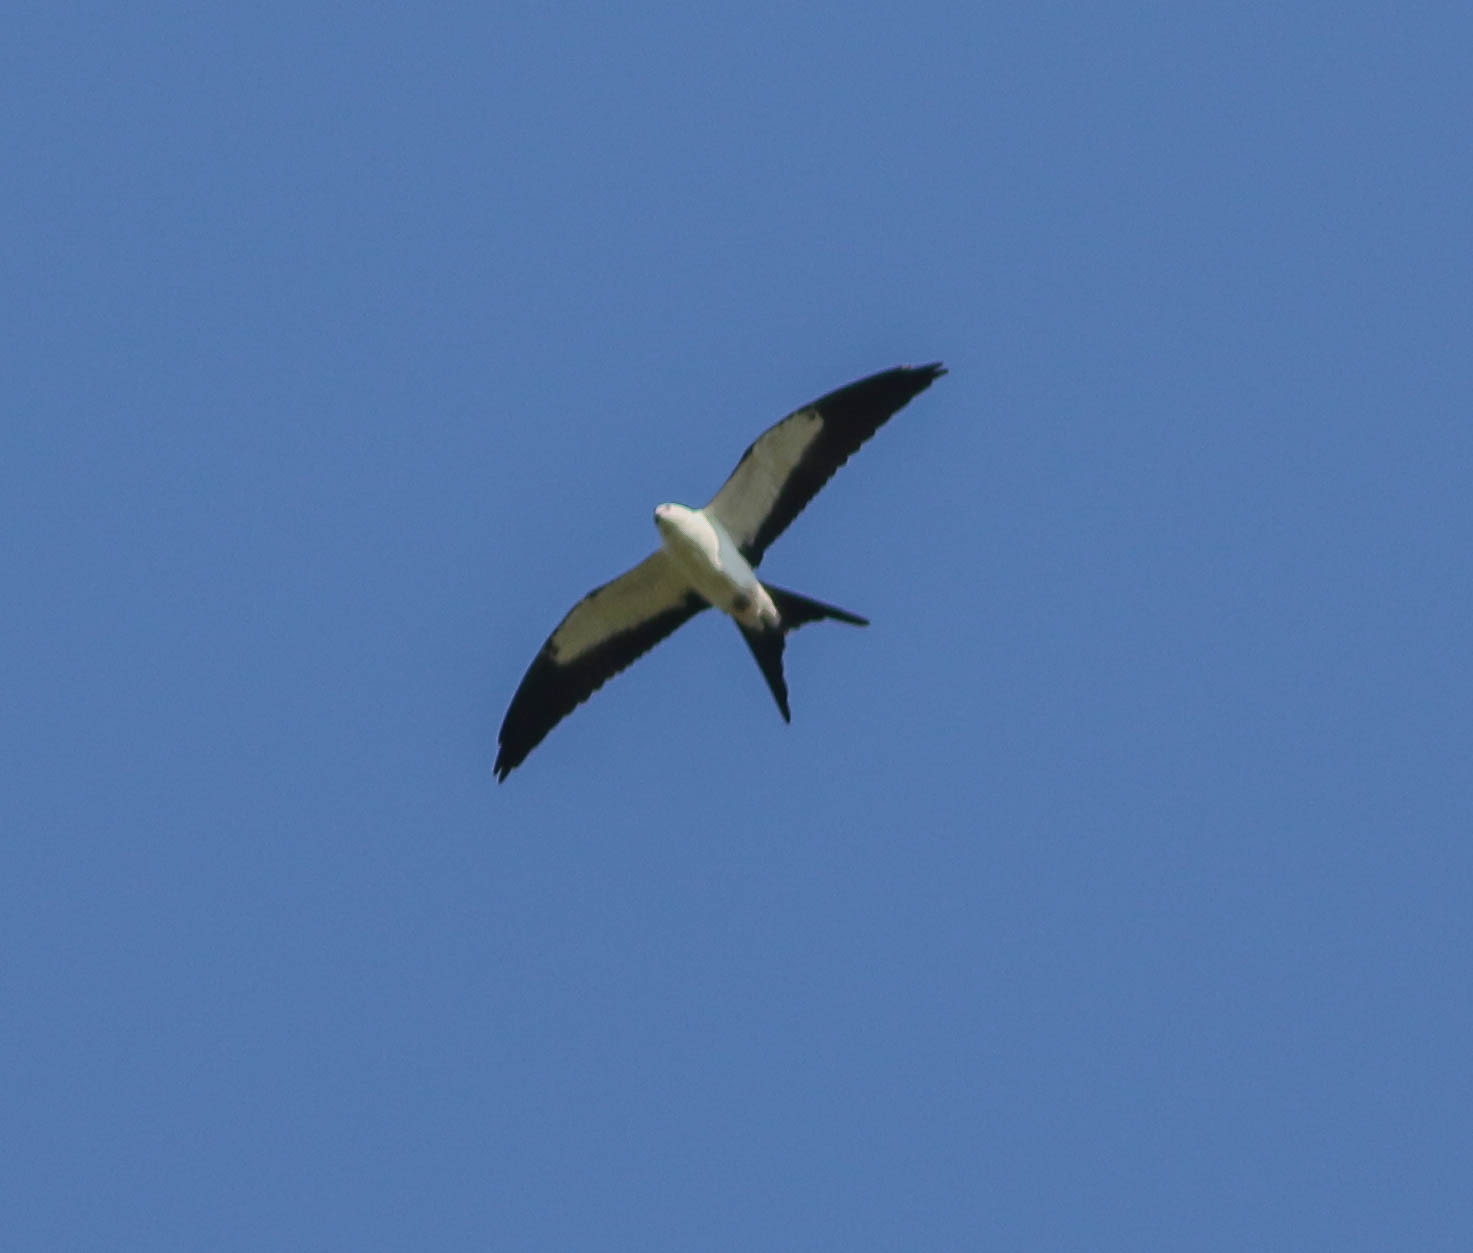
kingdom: Animalia
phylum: Chordata
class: Aves
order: Accipitriformes
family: Accipitridae
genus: Elanoides
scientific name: Elanoides forficatus
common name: Swallow-tailed kite
